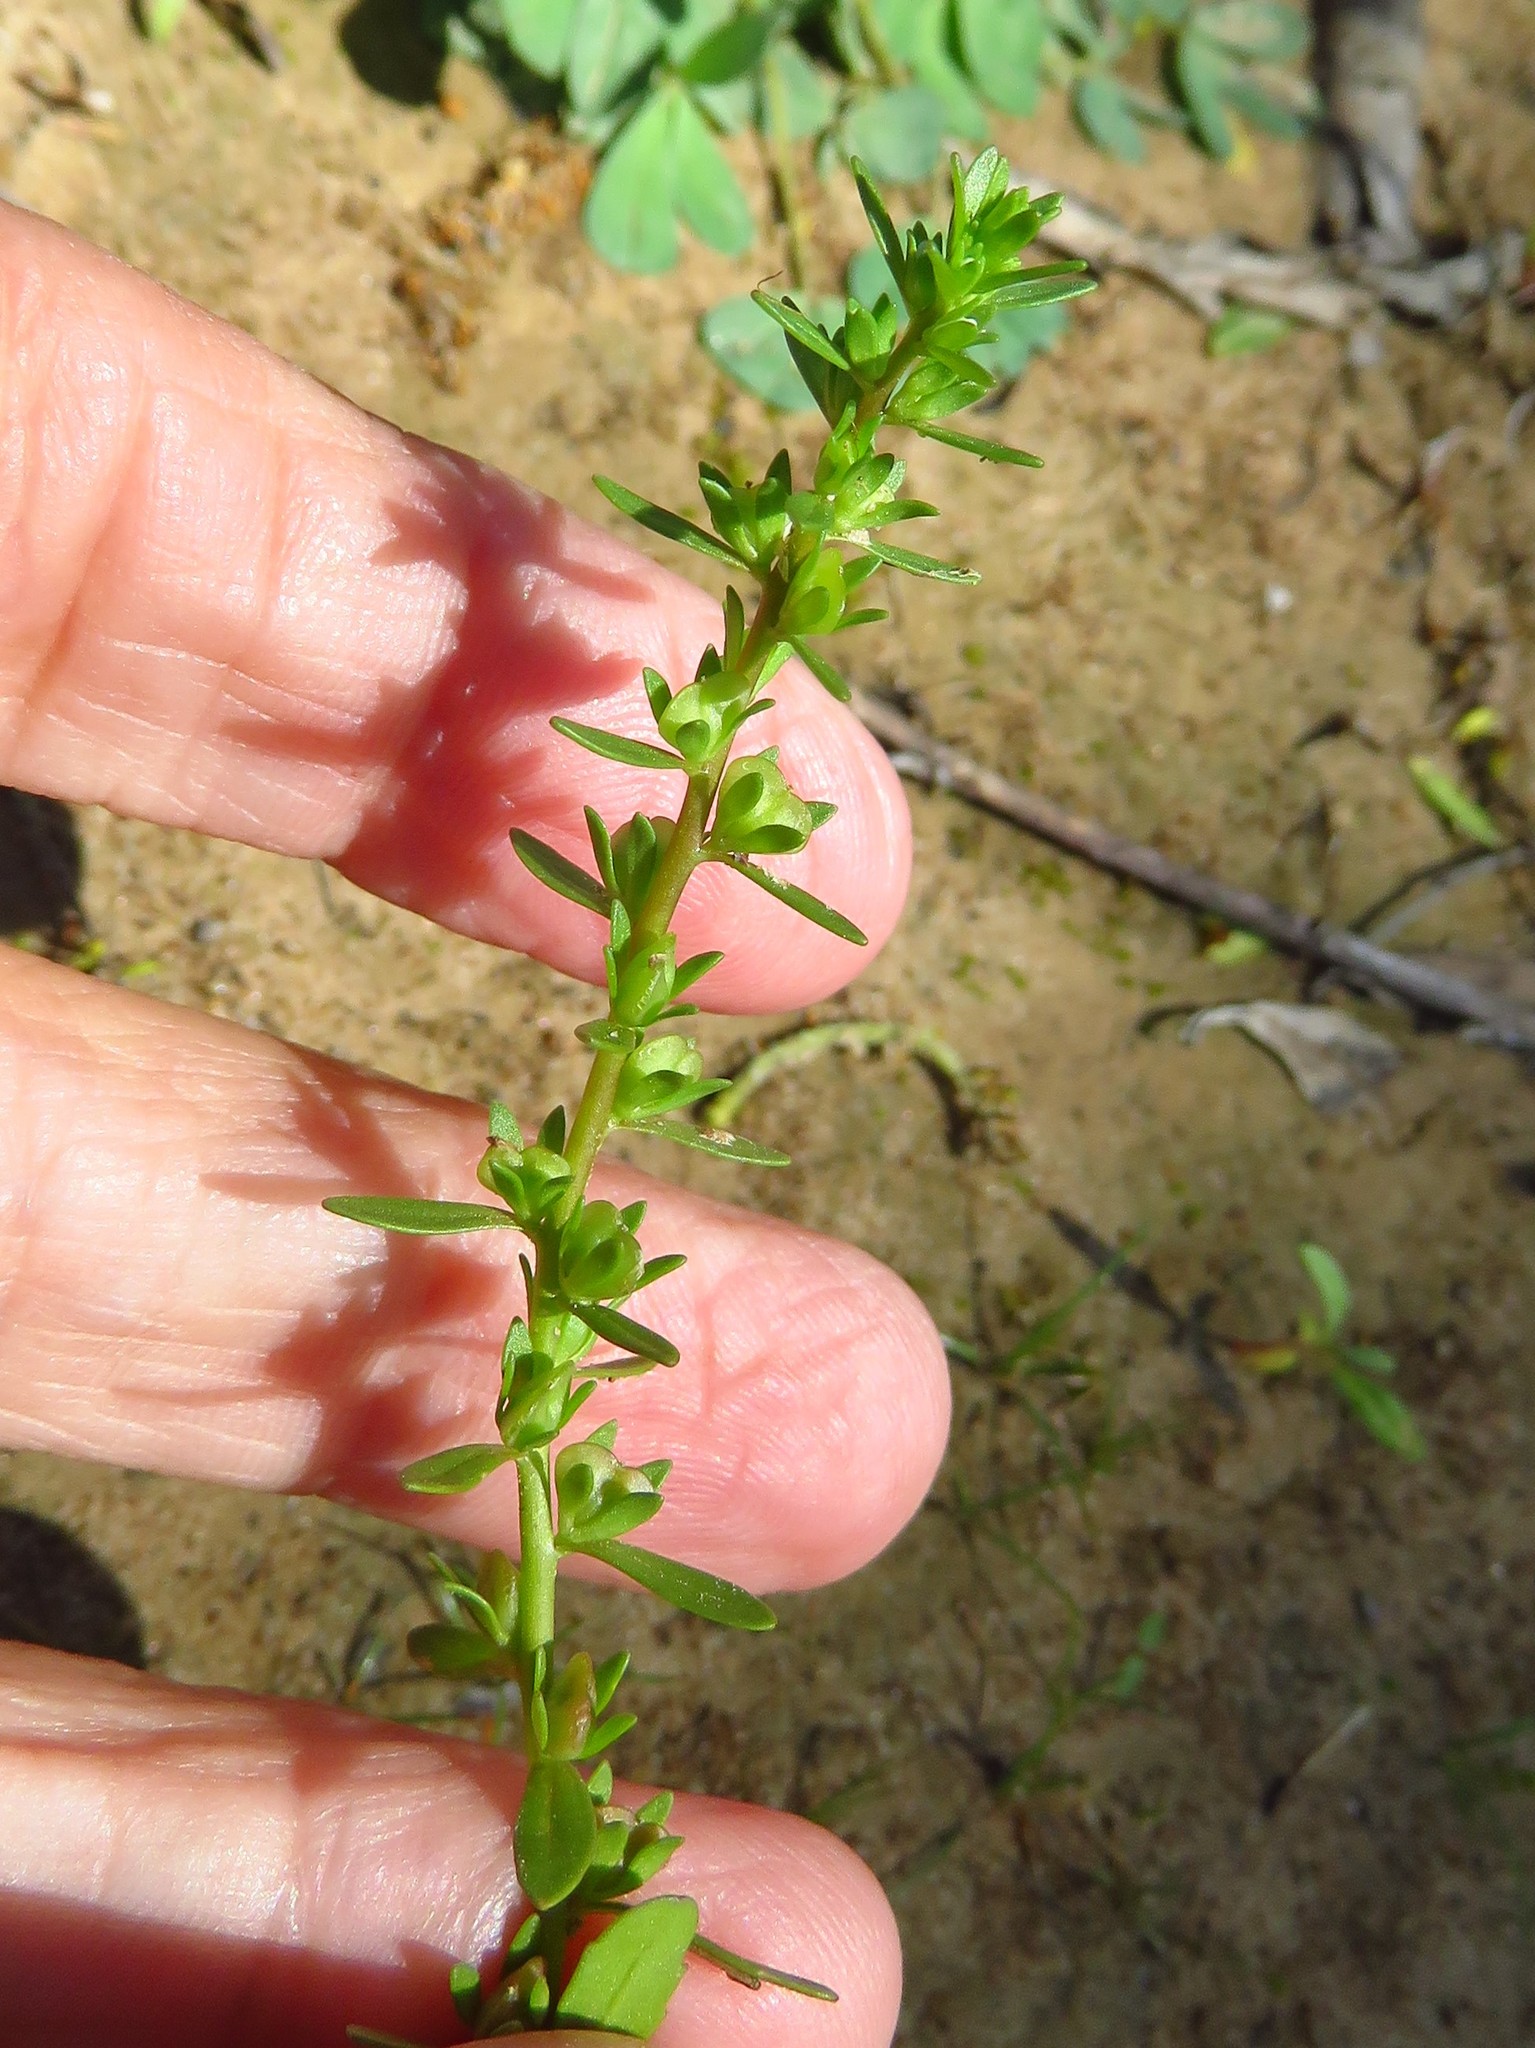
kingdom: Plantae
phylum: Tracheophyta
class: Magnoliopsida
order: Lamiales
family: Plantaginaceae
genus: Veronica
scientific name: Veronica peregrina
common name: Neckweed
